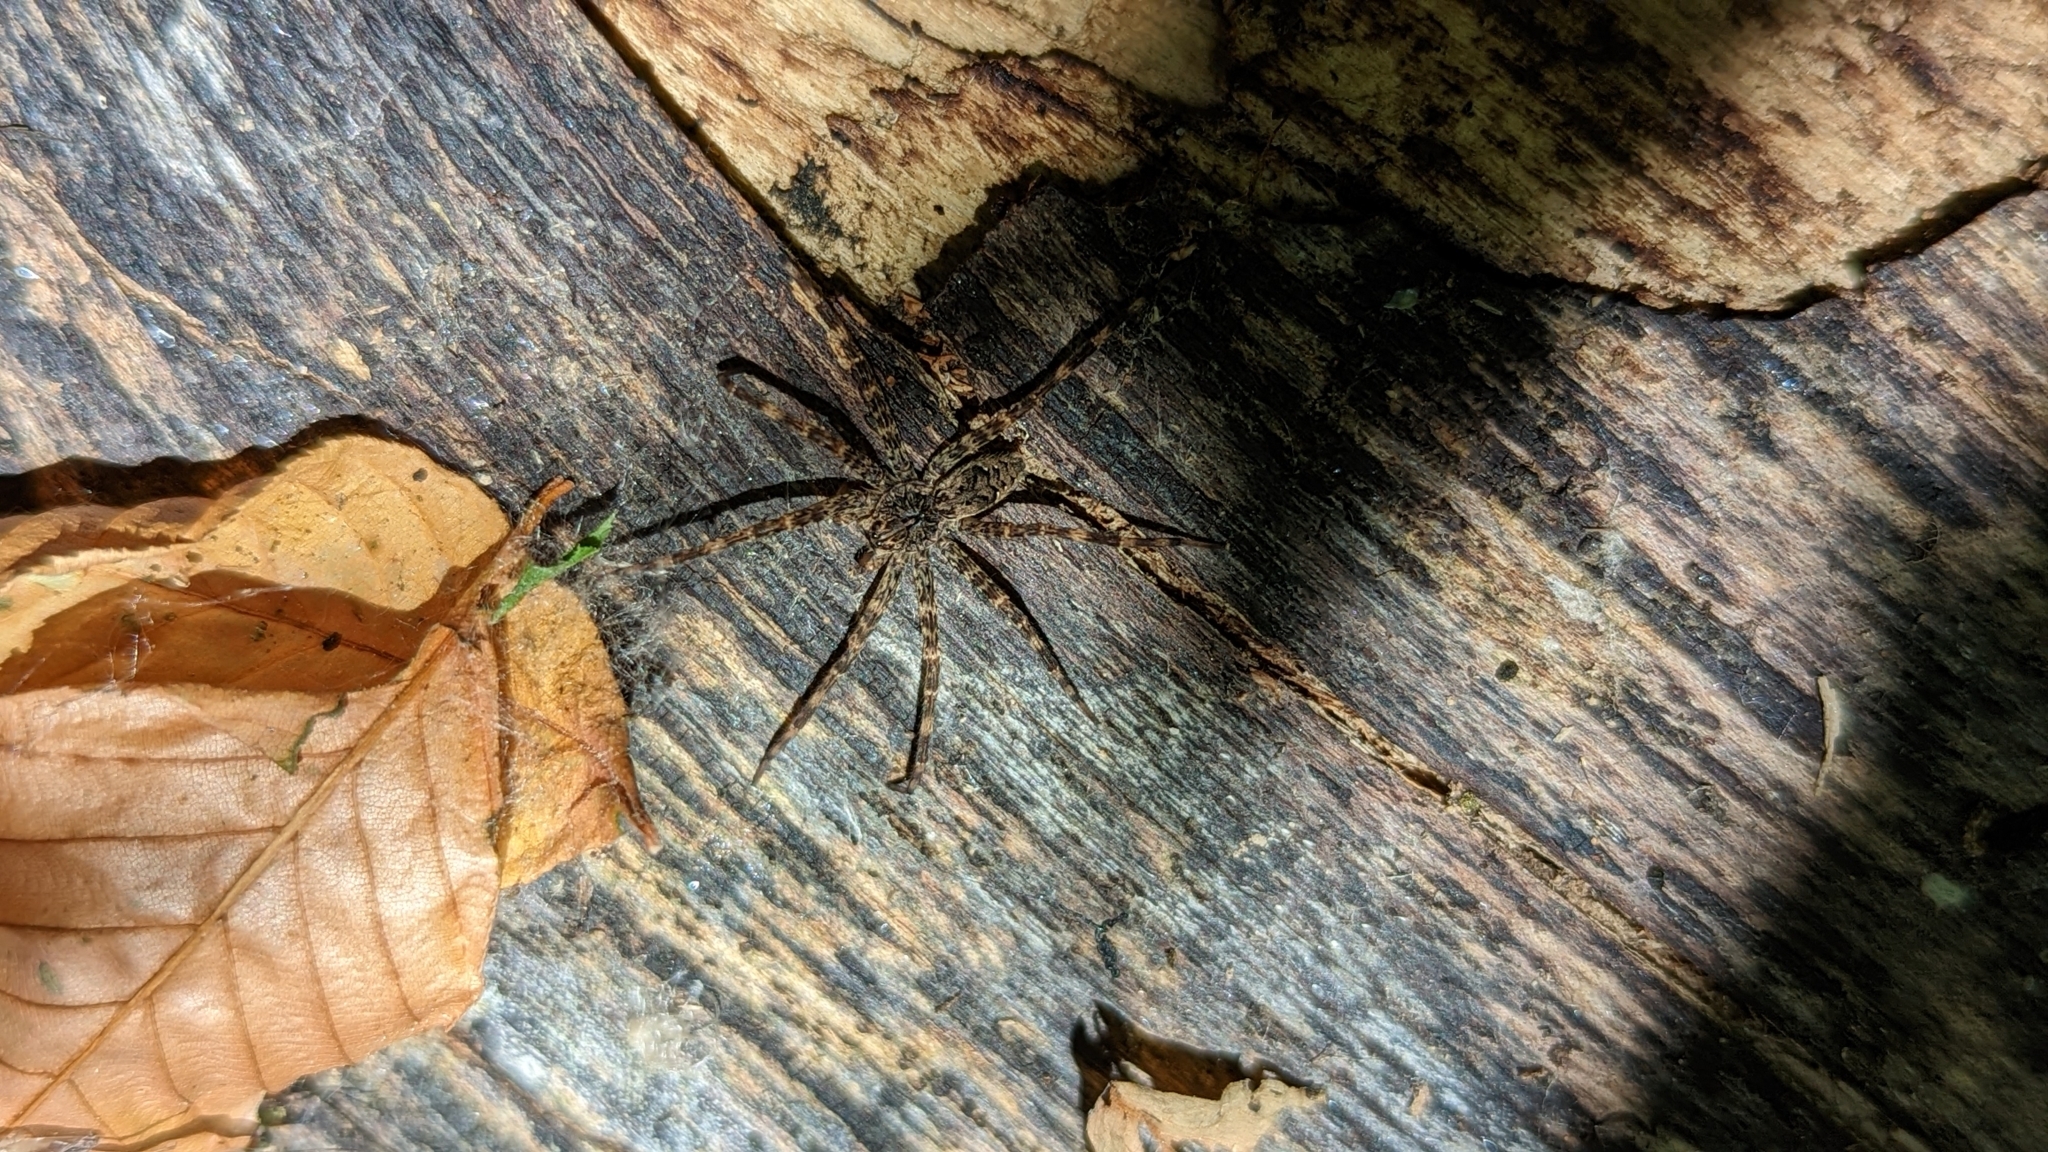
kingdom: Animalia
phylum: Arthropoda
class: Arachnida
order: Araneae
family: Pisauridae
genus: Dolomedes
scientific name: Dolomedes tenebrosus
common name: Dark fishing spider
